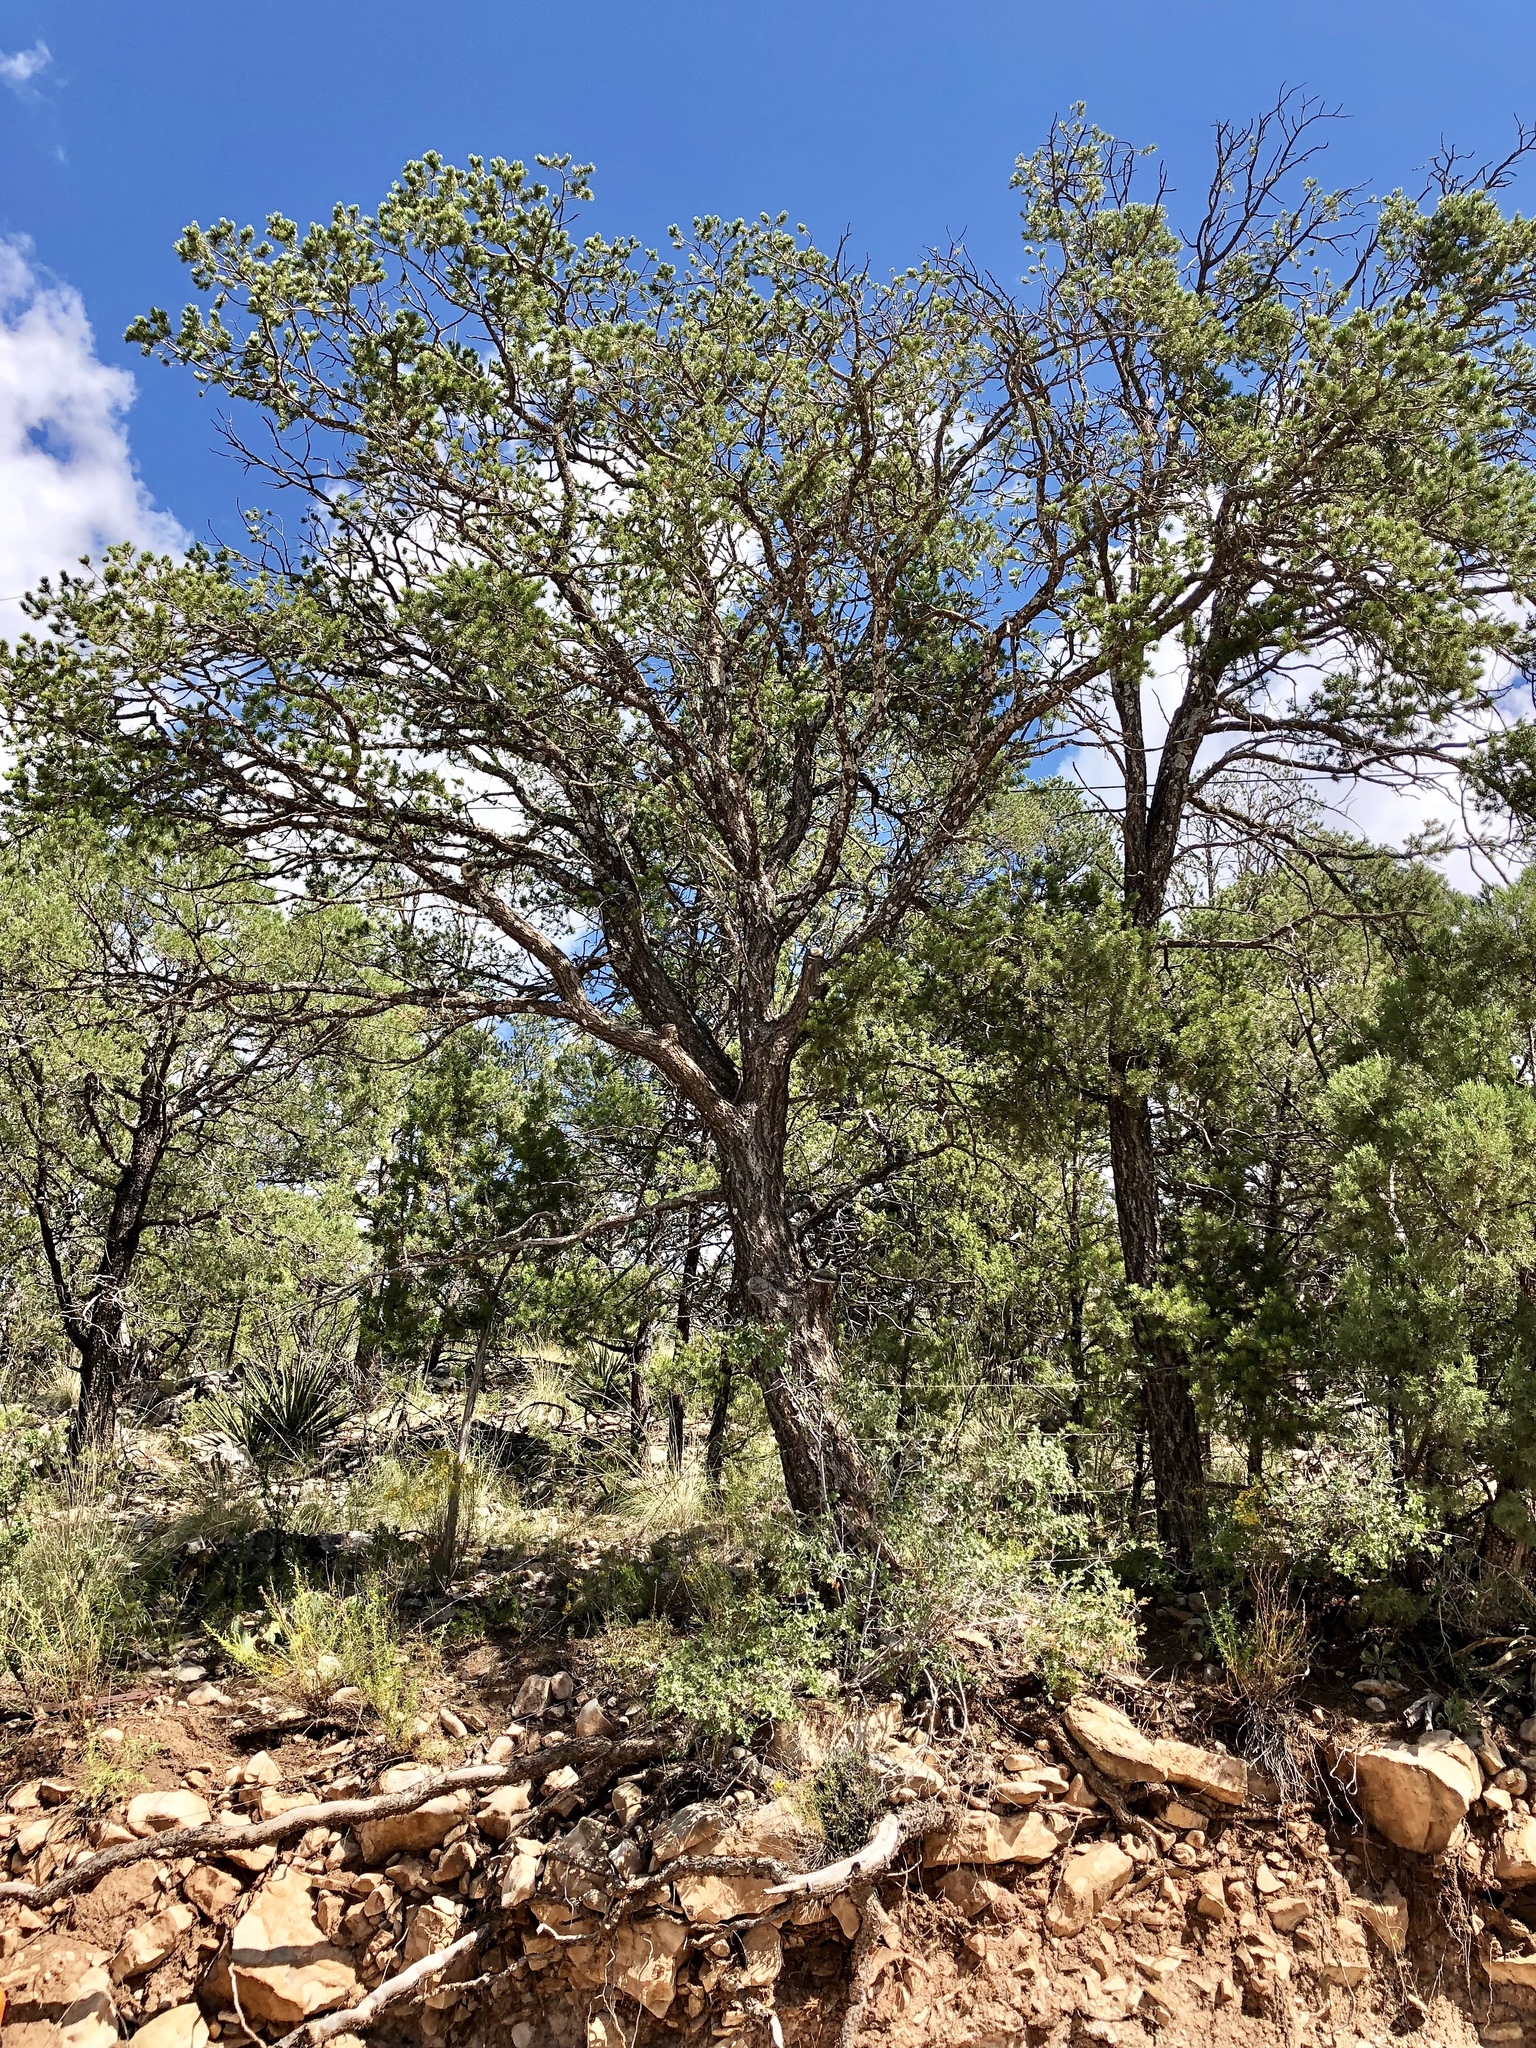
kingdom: Plantae
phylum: Tracheophyta
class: Pinopsida
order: Pinales
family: Pinaceae
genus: Pinus
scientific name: Pinus edulis
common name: Colorado pinyon
